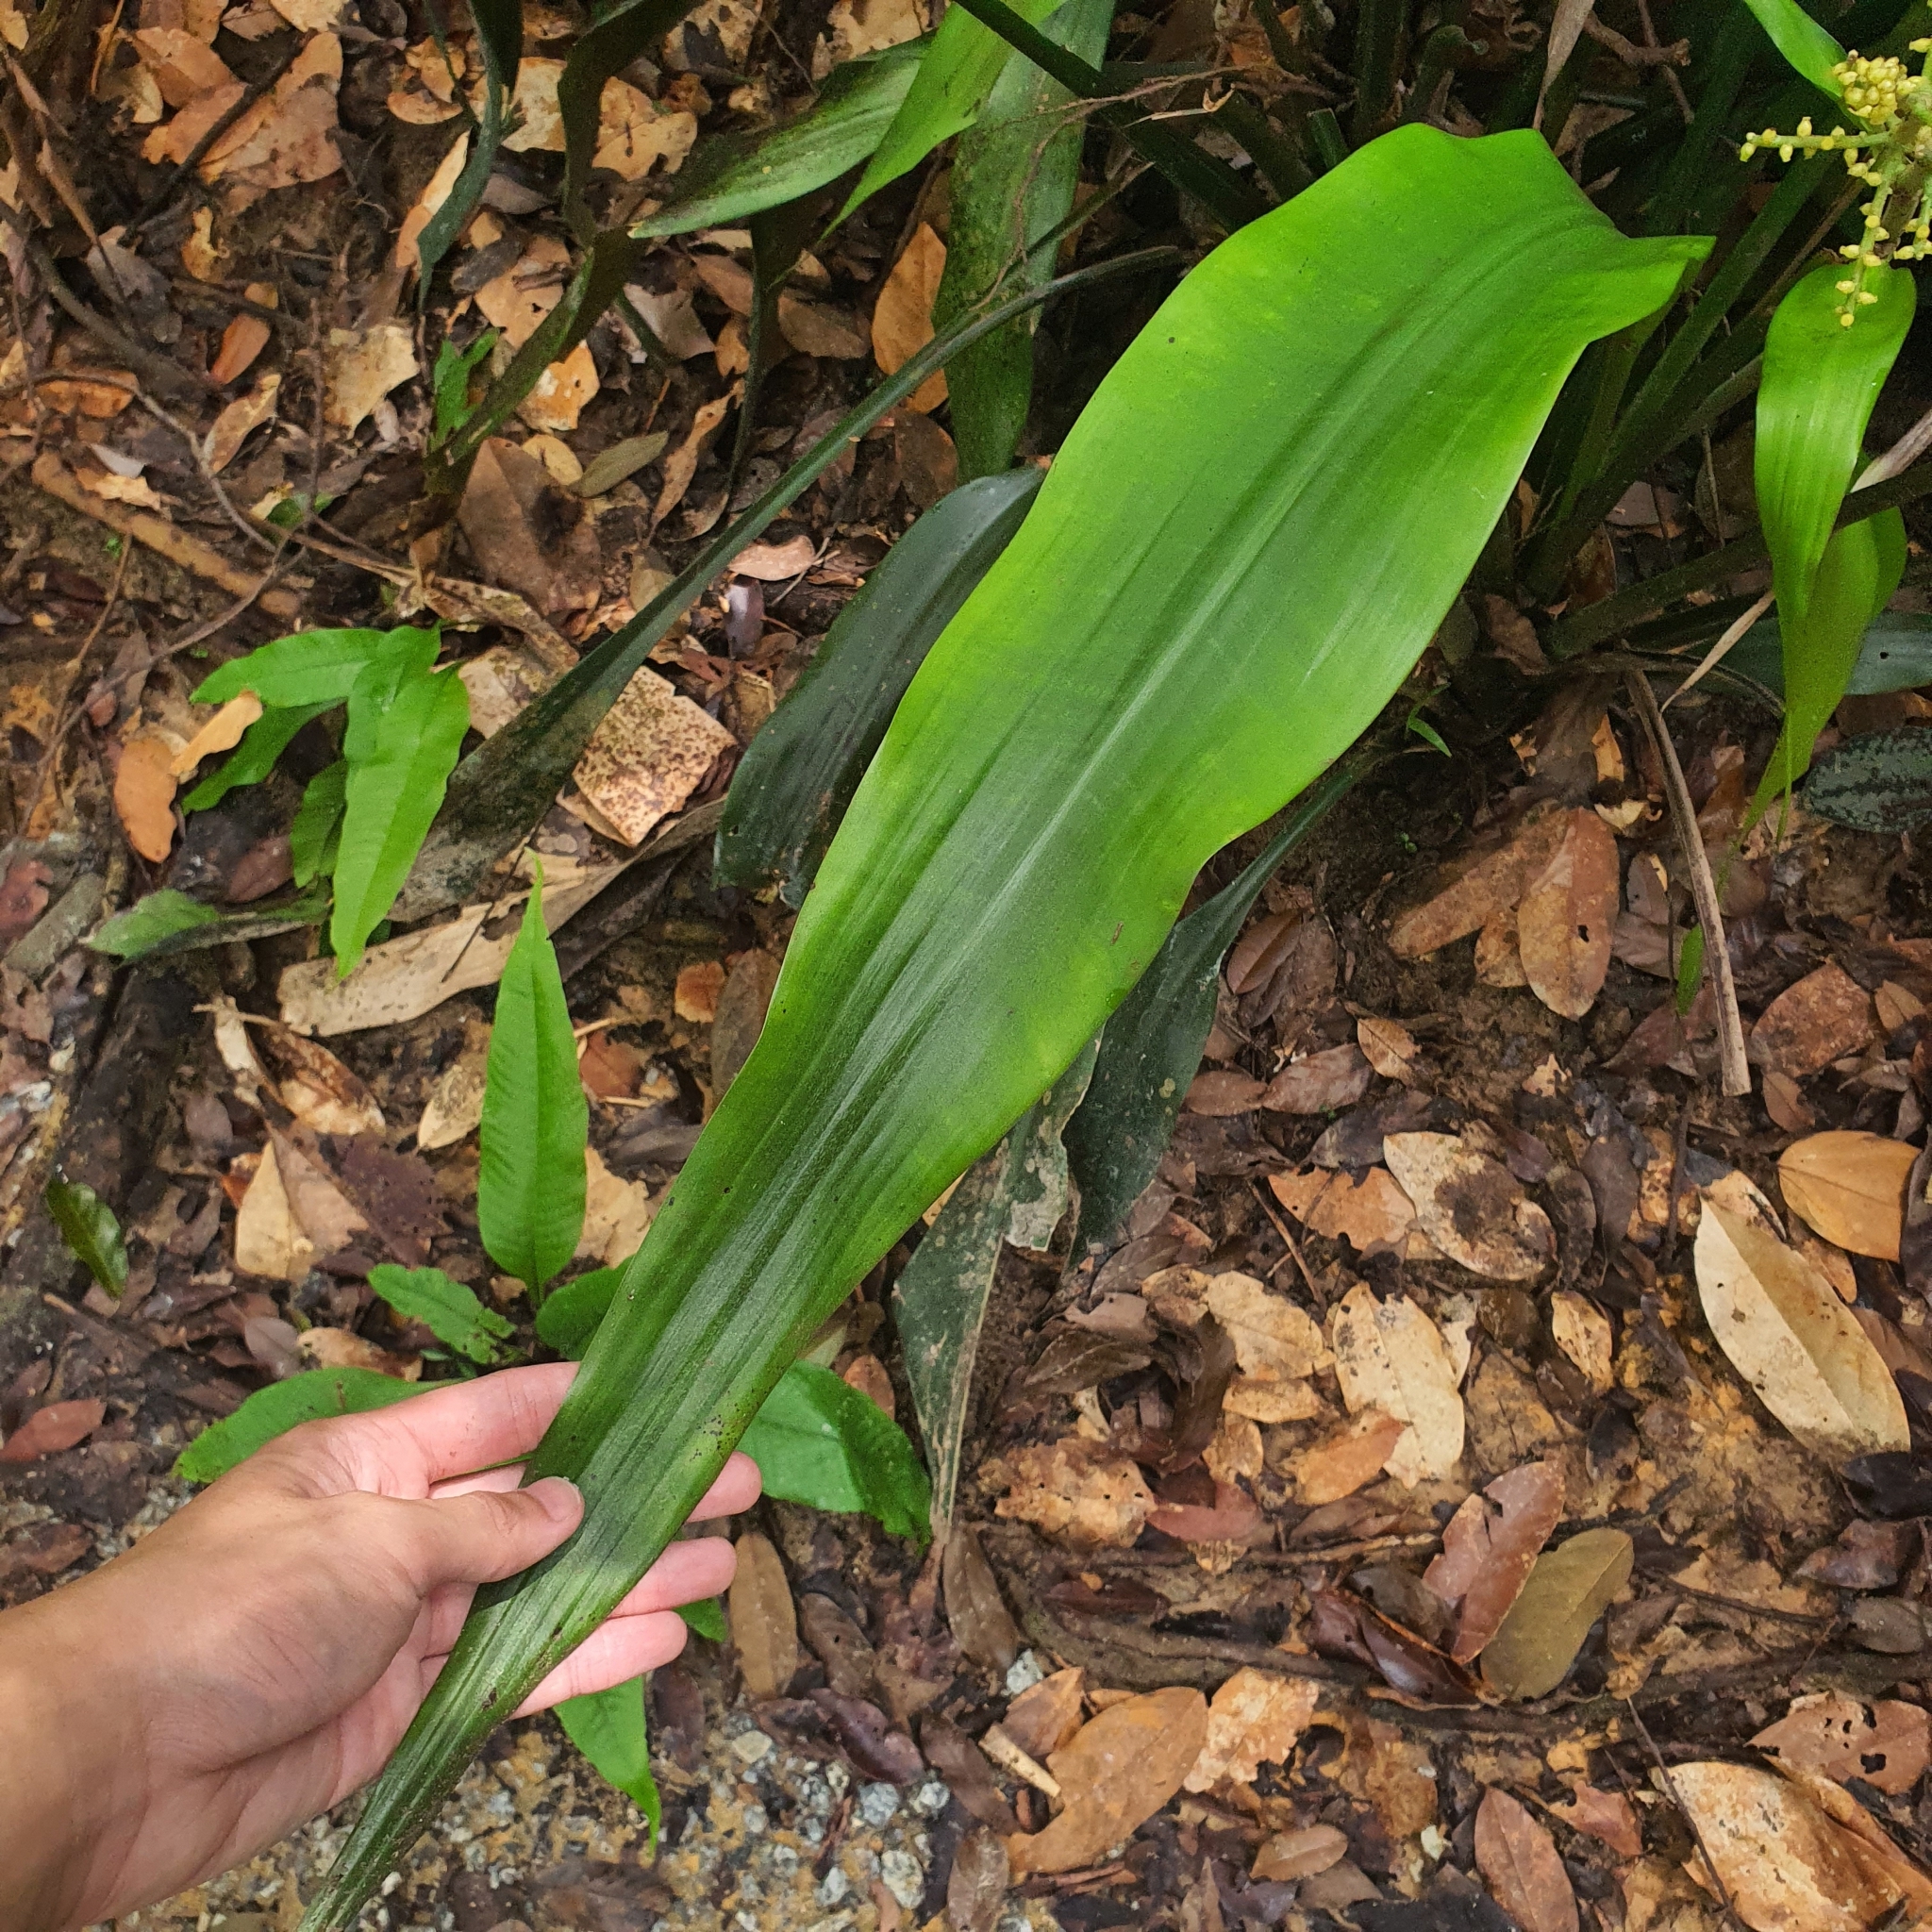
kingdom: Plantae
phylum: Tracheophyta
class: Liliopsida
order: Commelinales
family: Hanguanaceae
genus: Hanguana
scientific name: Hanguana triangulata
